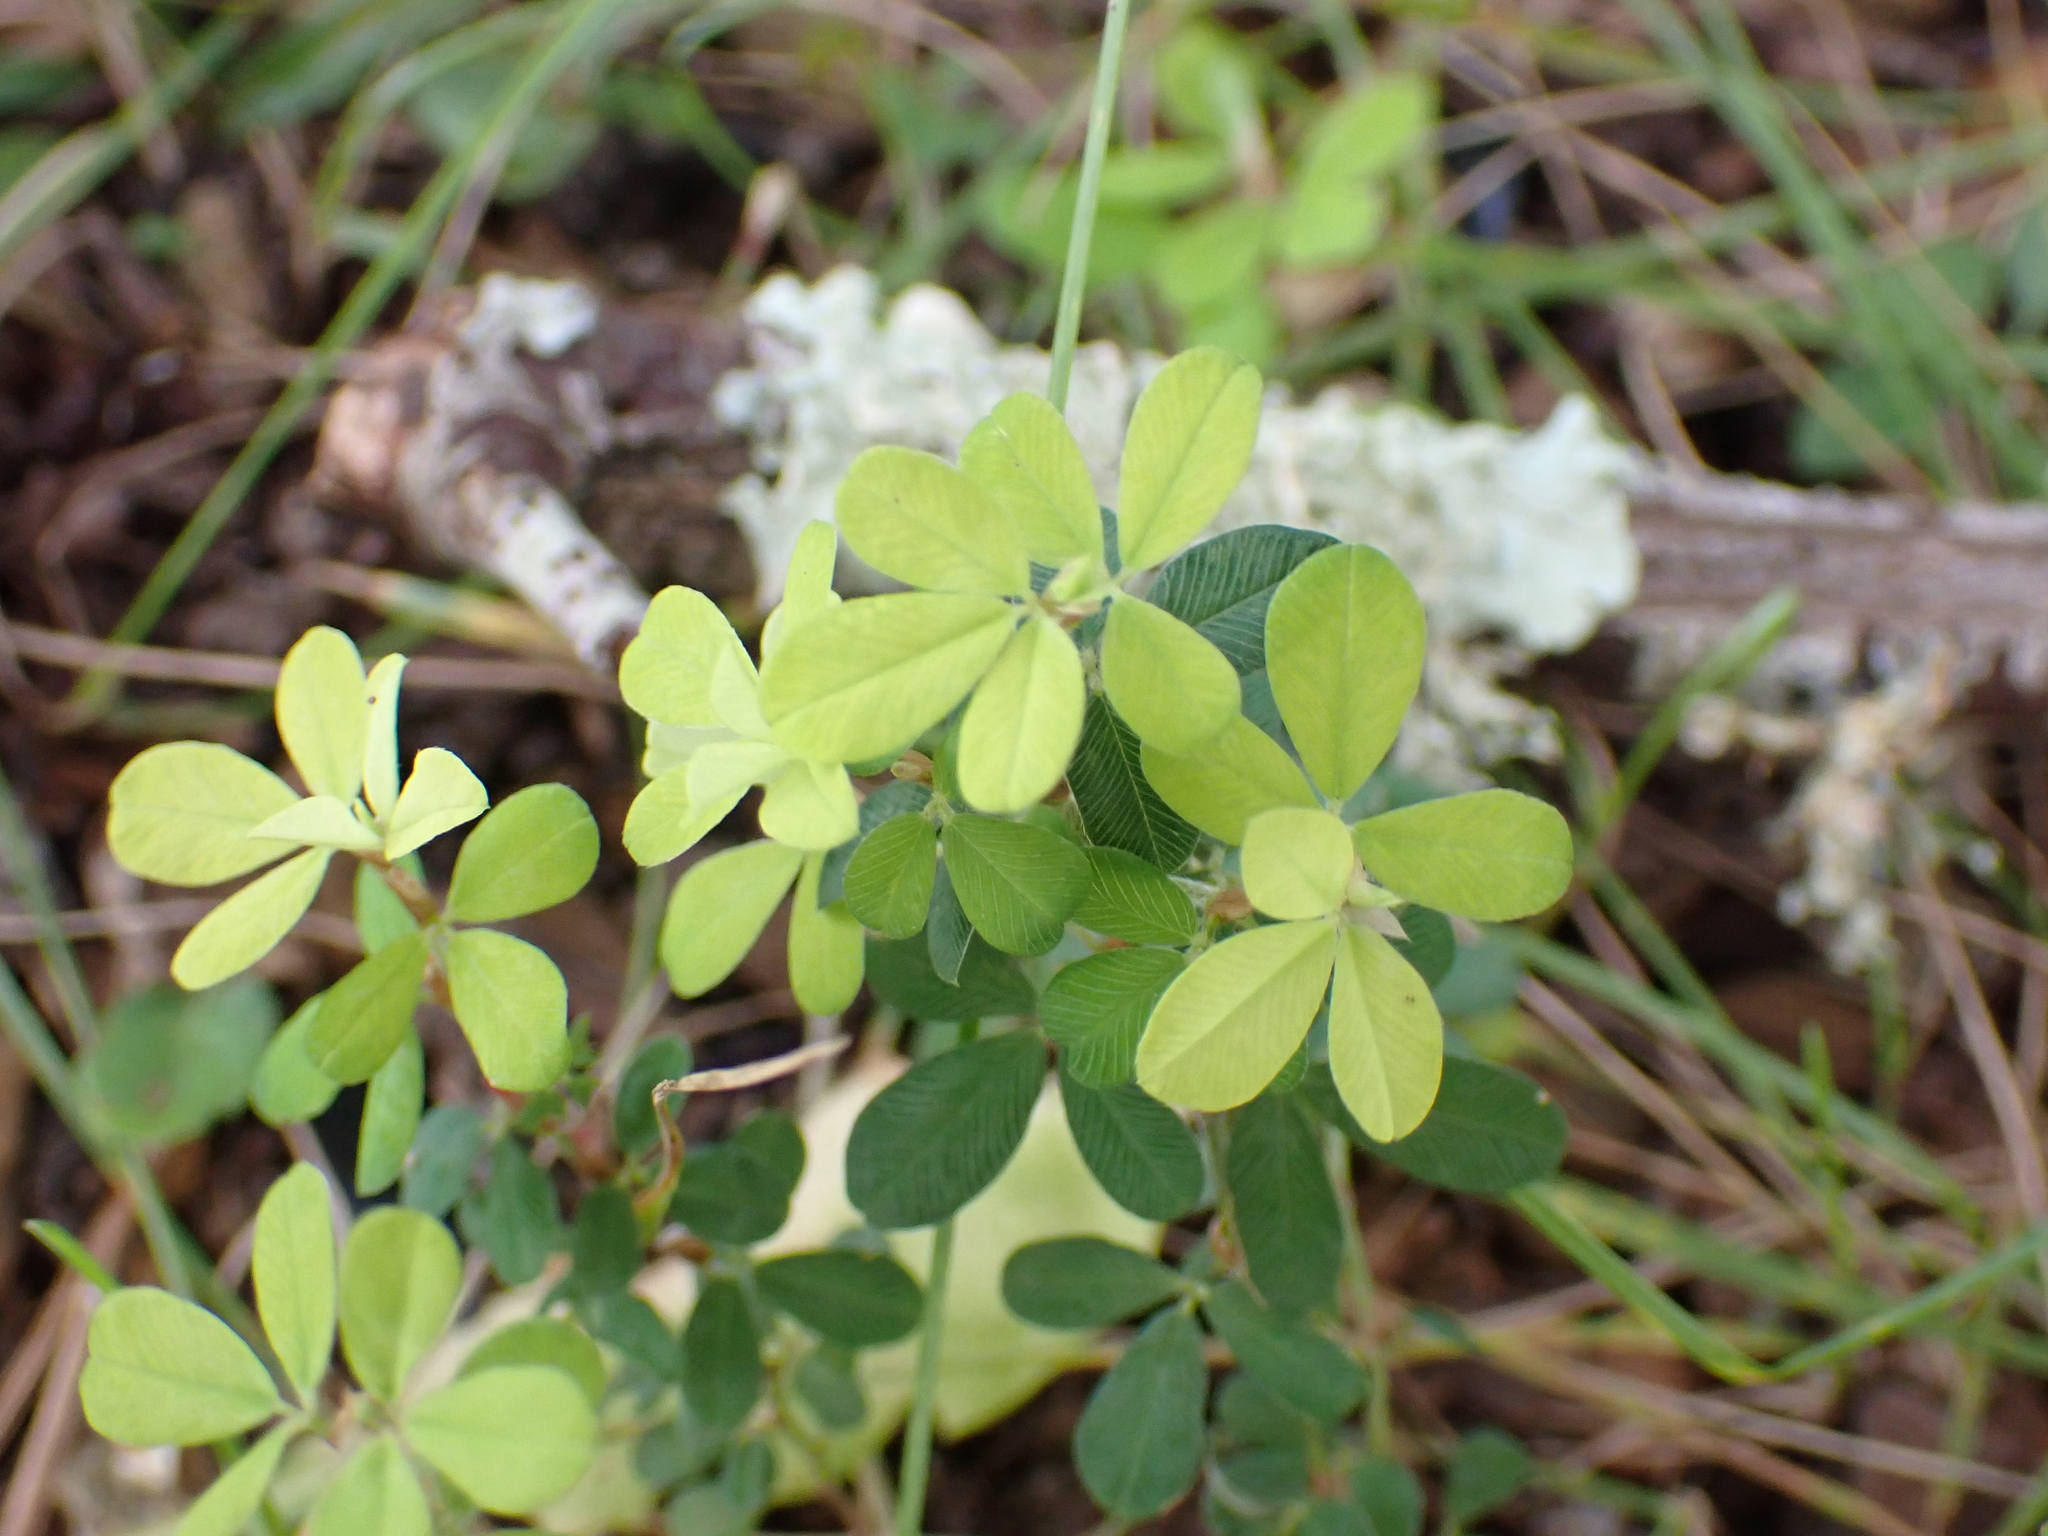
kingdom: Plantae
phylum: Tracheophyta
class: Magnoliopsida
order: Fabales
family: Fabaceae
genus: Kummerowia
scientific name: Kummerowia striata
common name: Japanese clover
